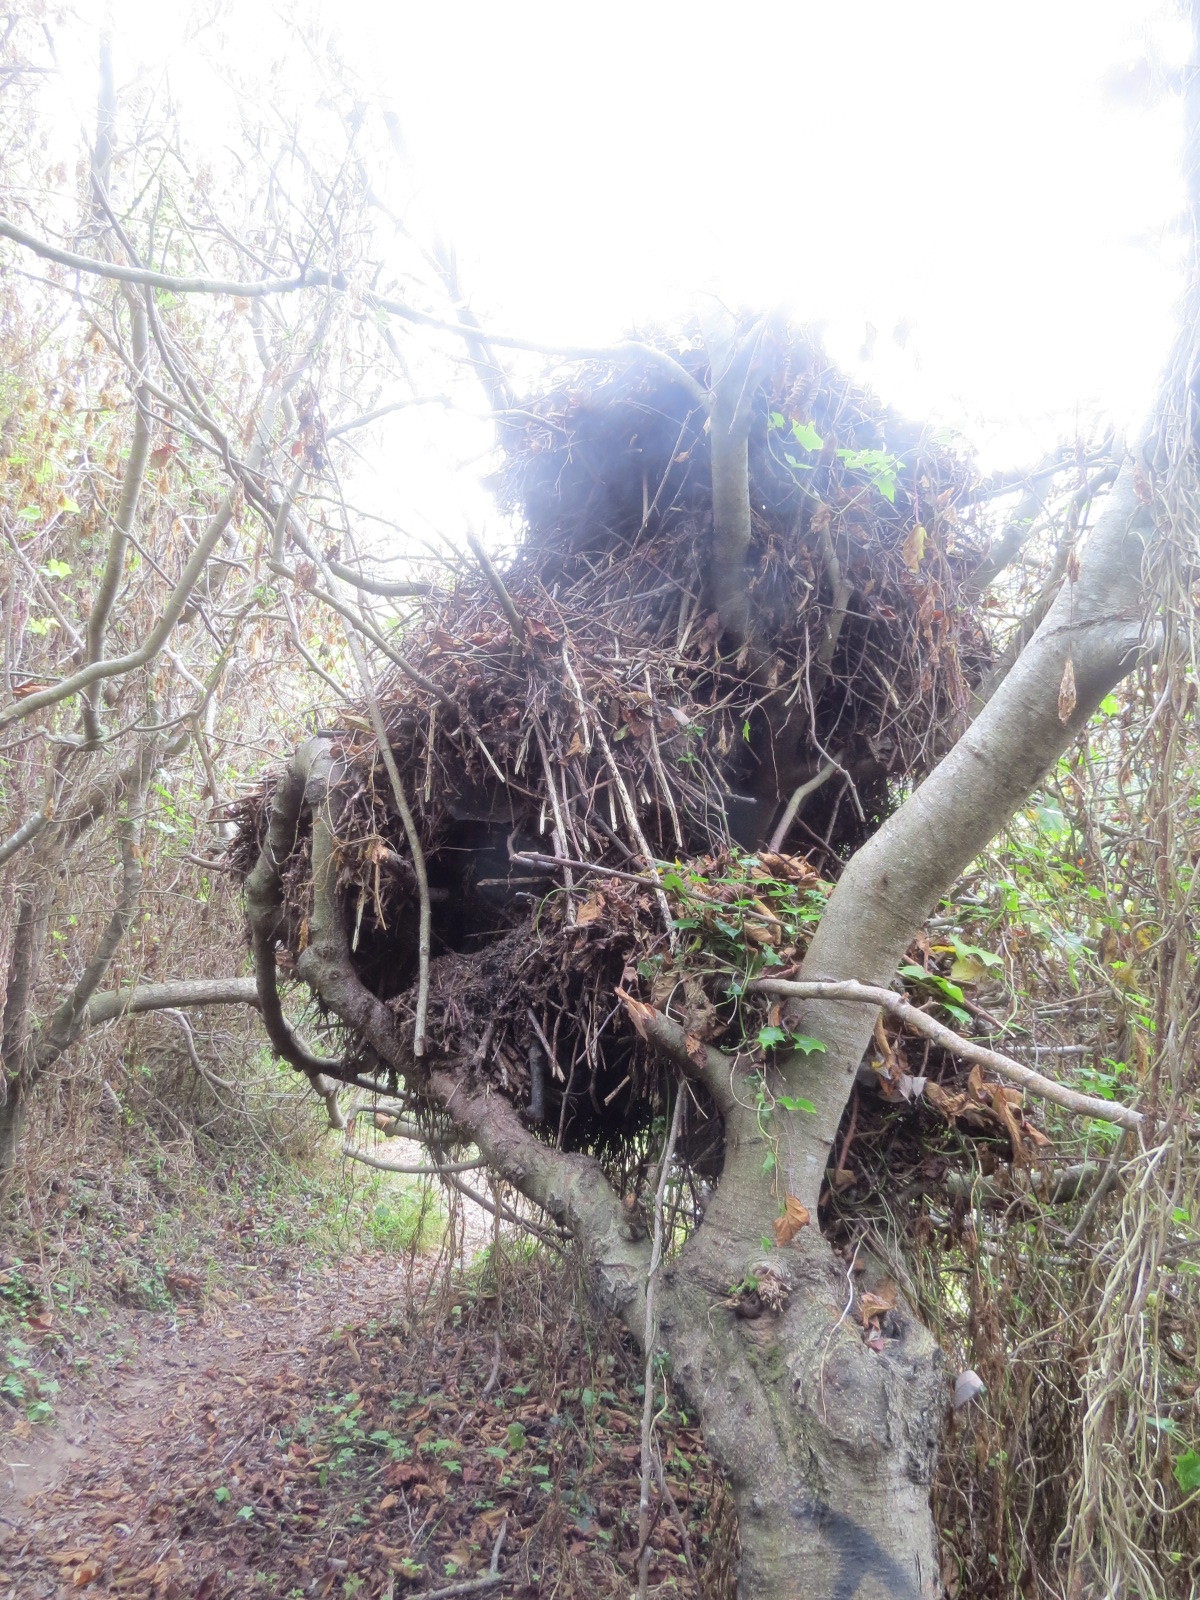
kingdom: Animalia
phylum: Chordata
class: Mammalia
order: Rodentia
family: Cricetidae
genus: Neotoma
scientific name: Neotoma fuscipes
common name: Dusky-footed woodrat
